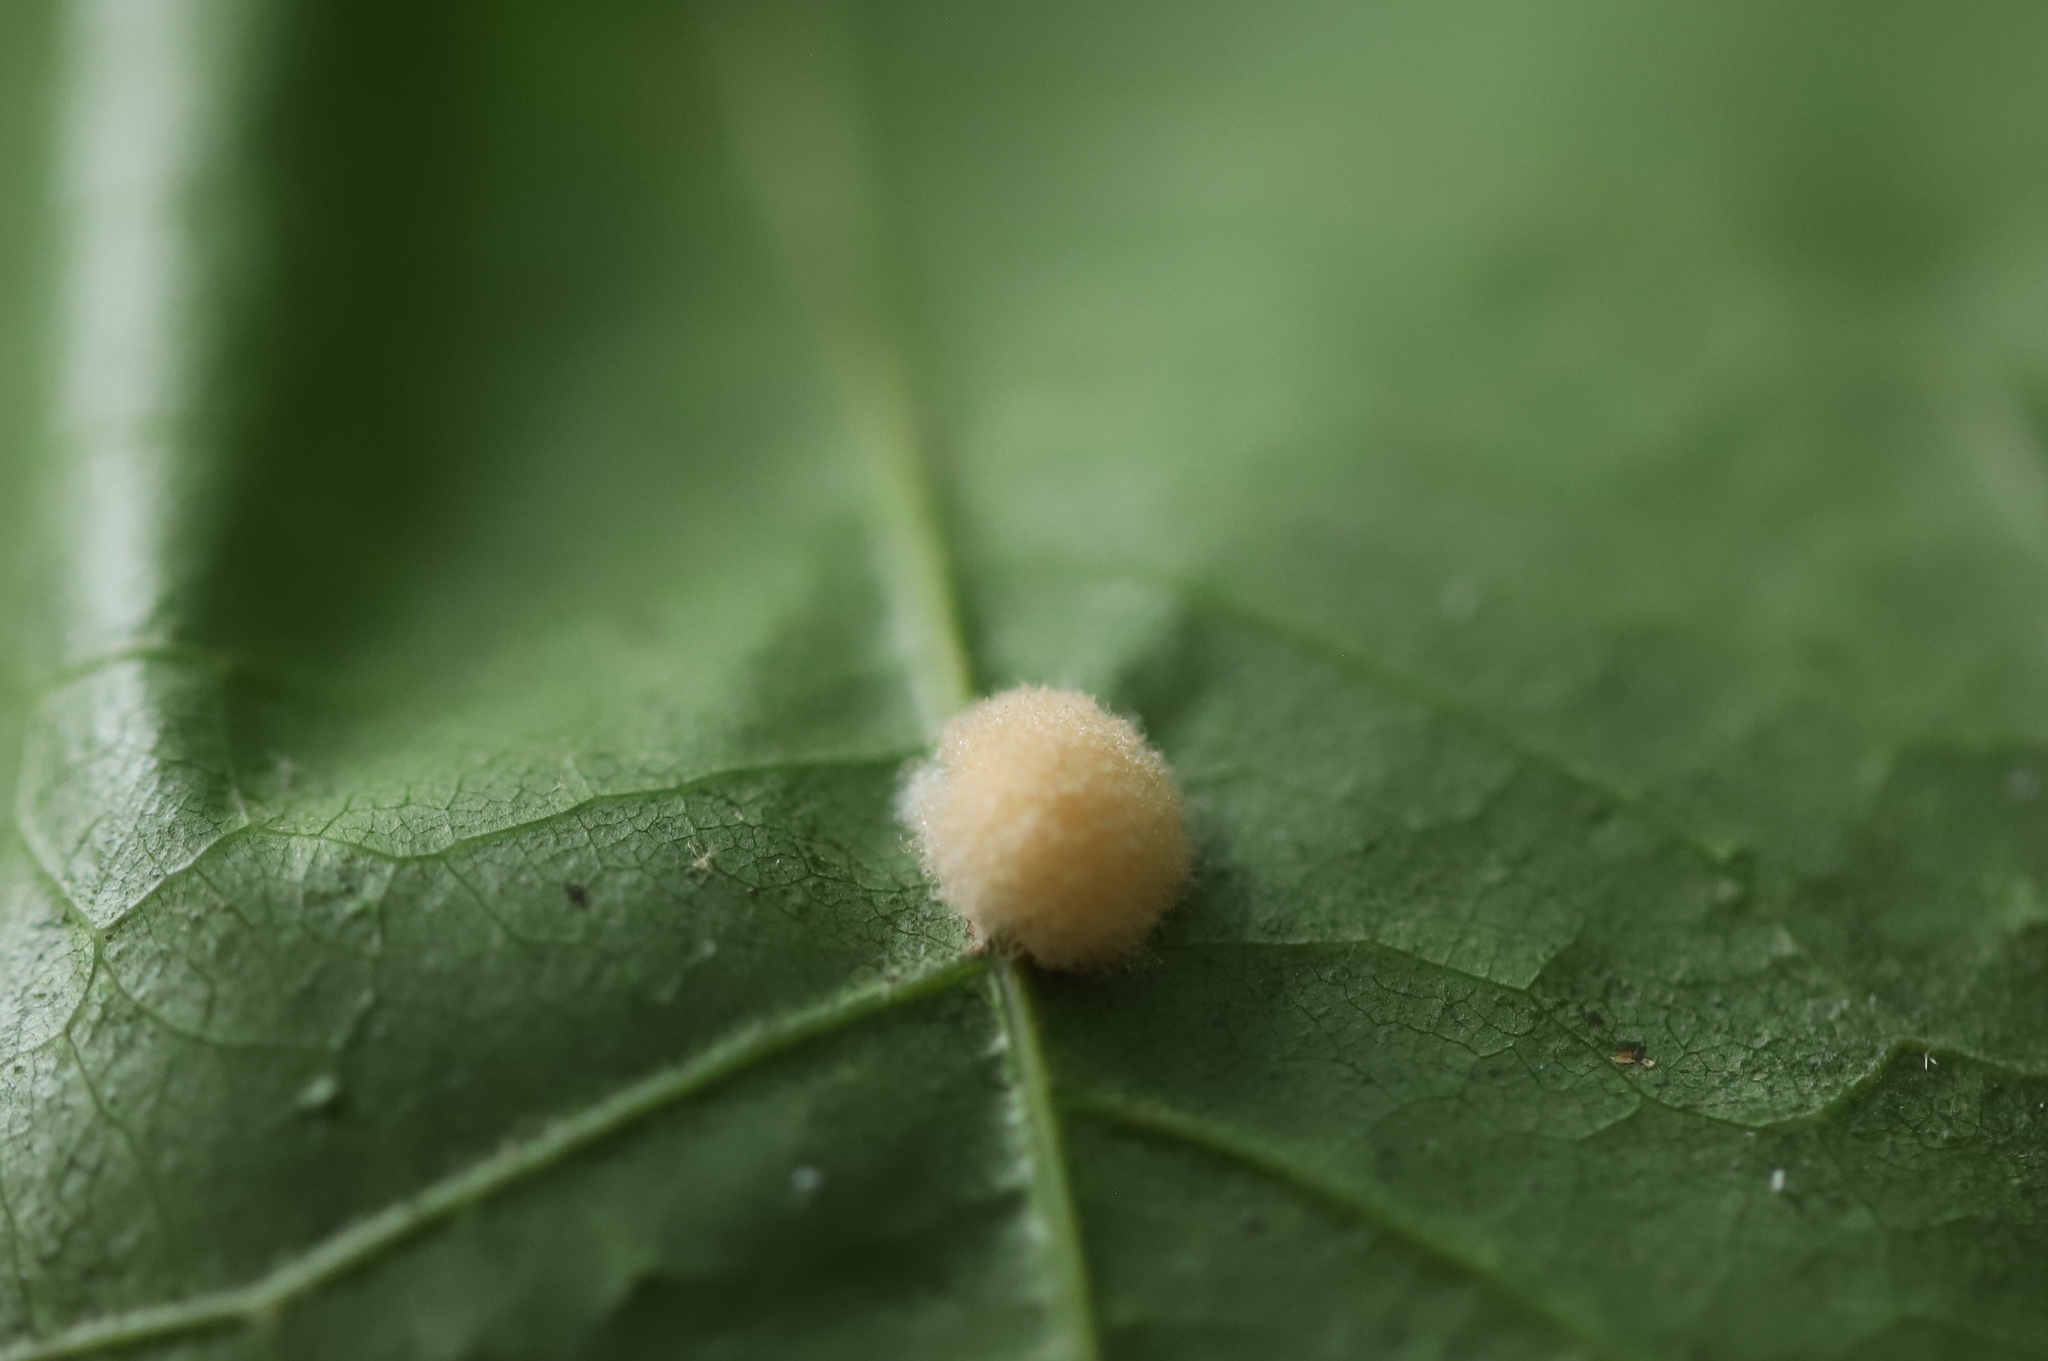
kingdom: Animalia
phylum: Arthropoda
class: Insecta
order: Hymenoptera
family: Cynipidae
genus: Callirhytis
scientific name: Callirhytis
